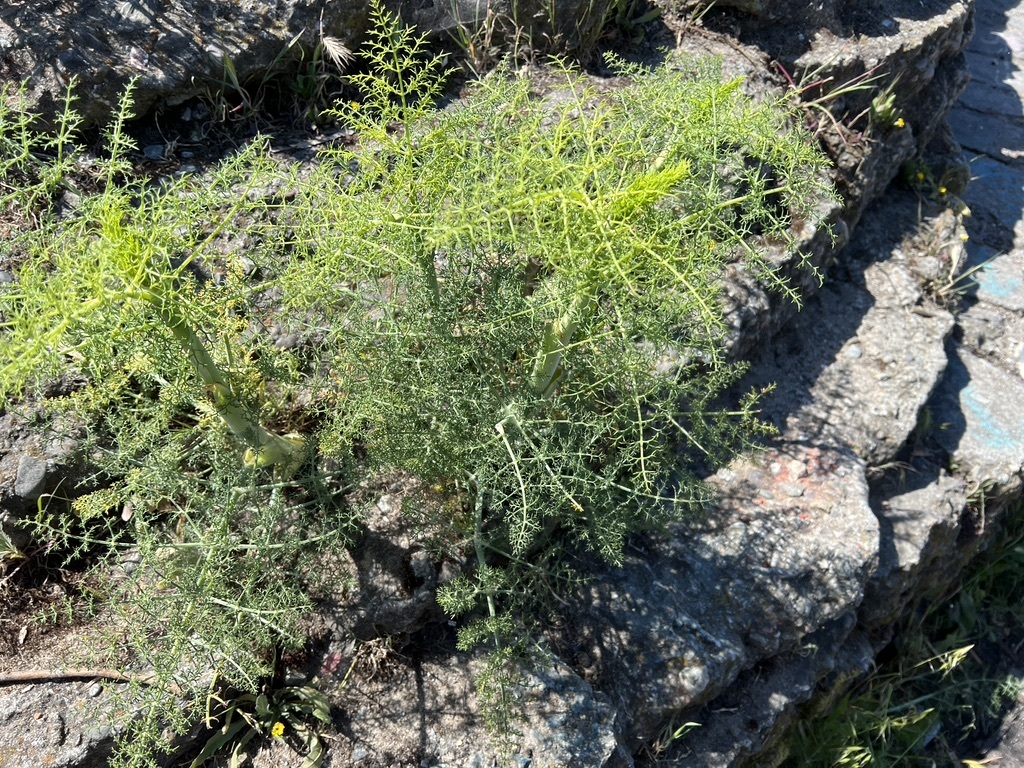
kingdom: Plantae
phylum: Tracheophyta
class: Magnoliopsida
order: Apiales
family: Apiaceae
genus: Foeniculum
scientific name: Foeniculum vulgare
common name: Fennel
